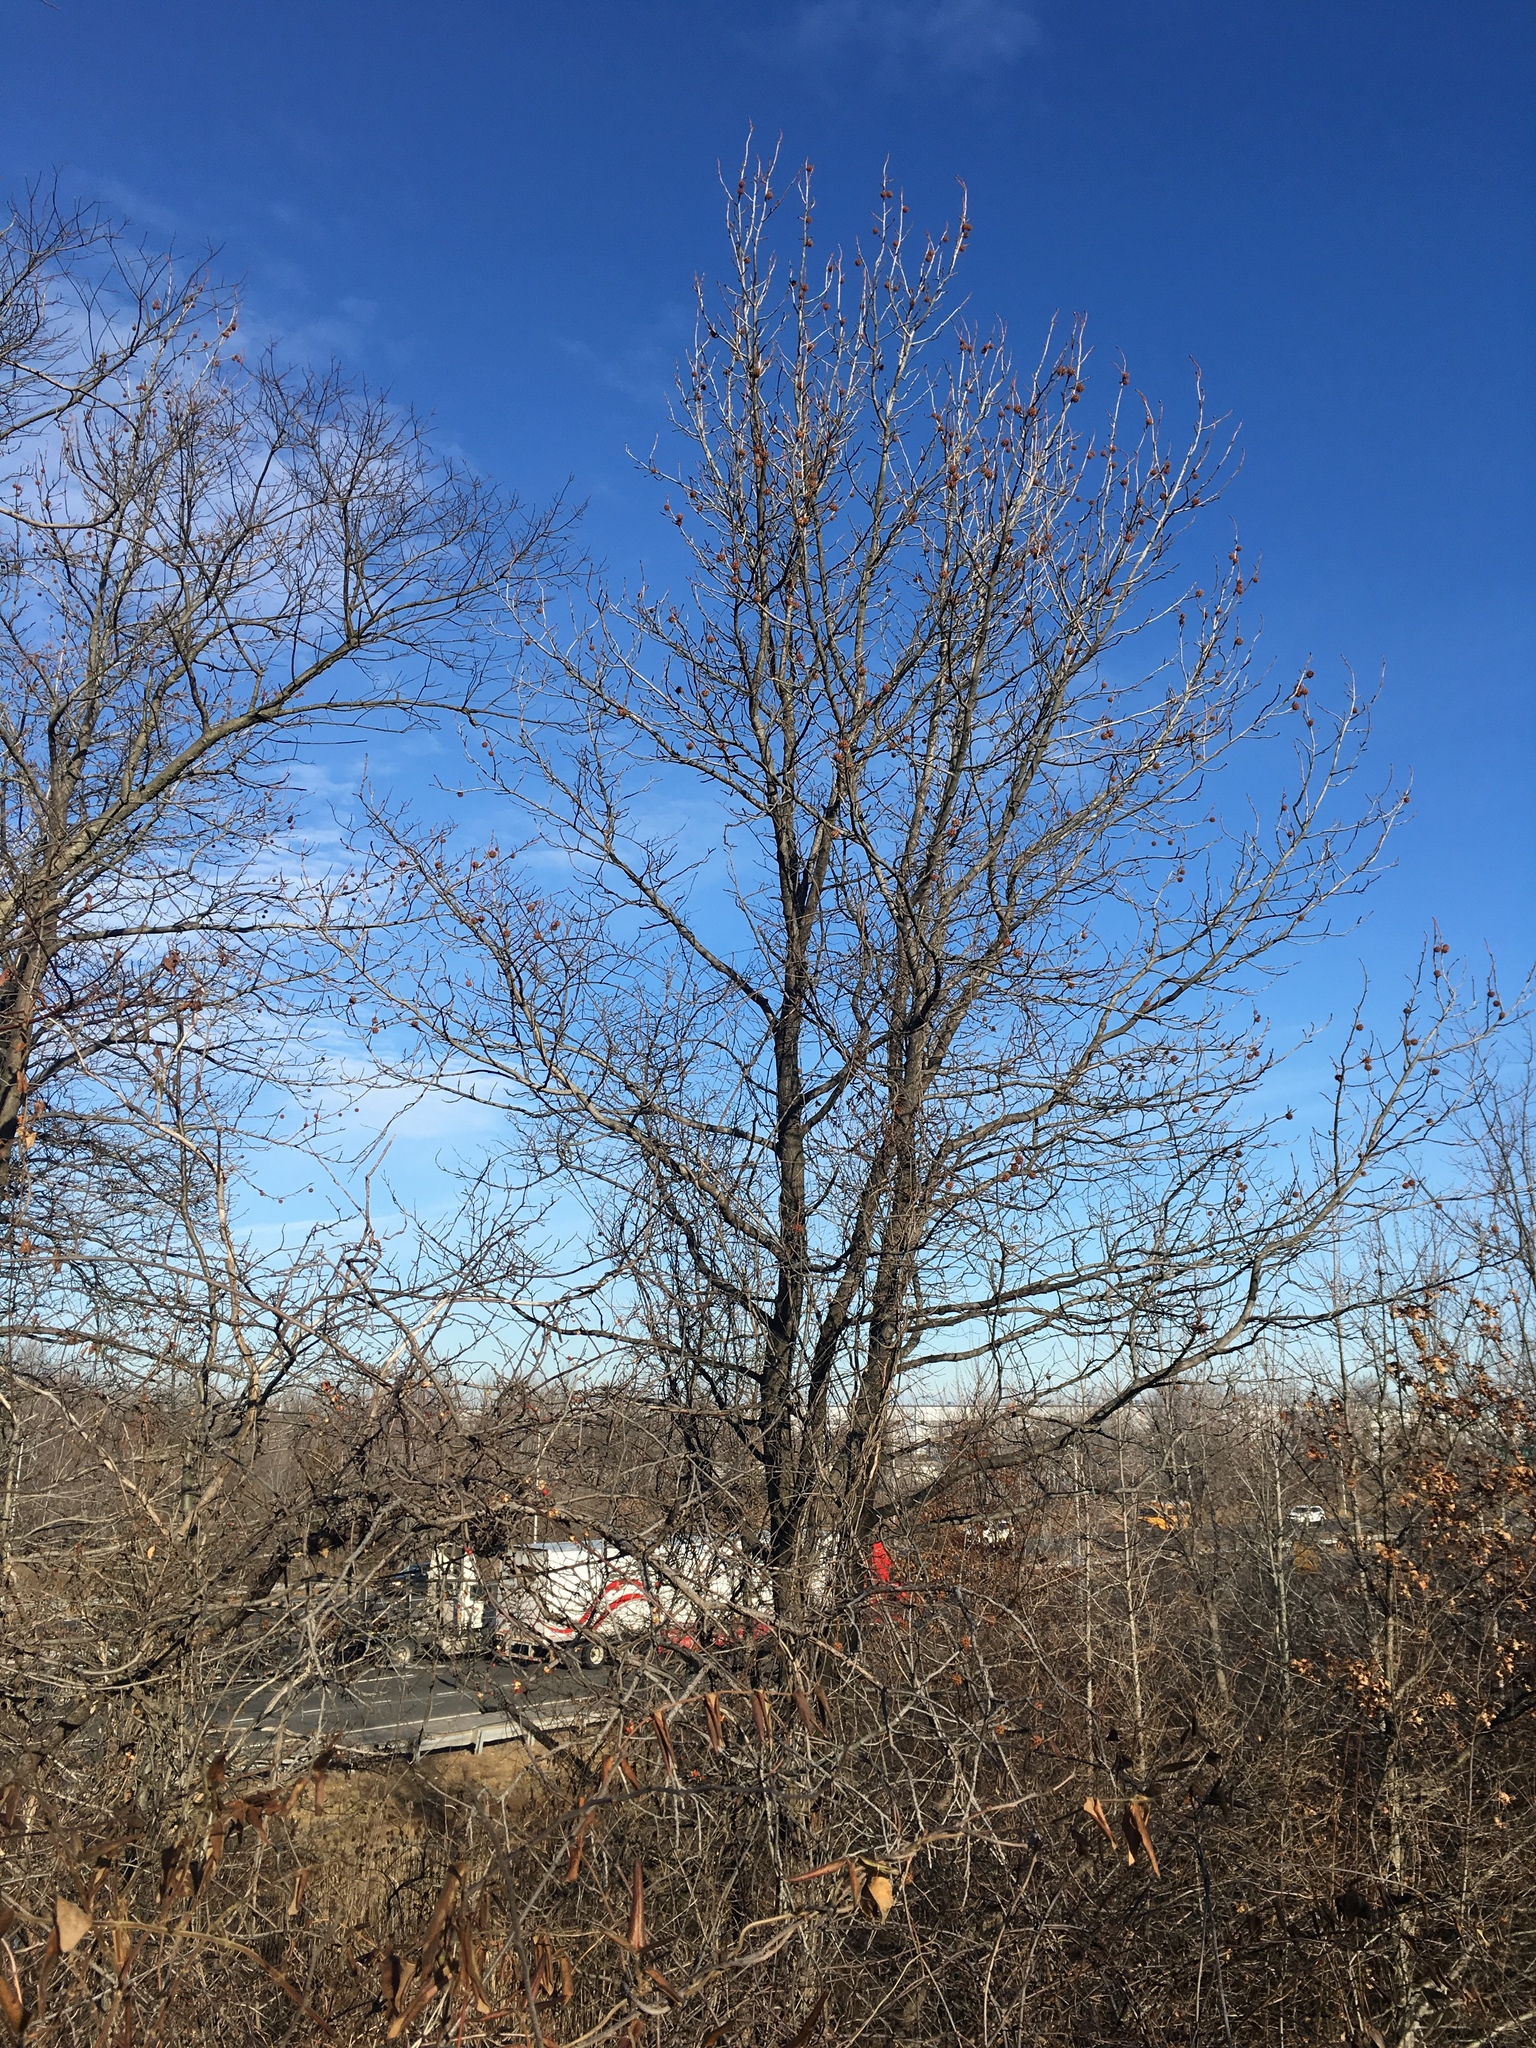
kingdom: Plantae
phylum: Tracheophyta
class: Magnoliopsida
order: Saxifragales
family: Altingiaceae
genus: Liquidambar
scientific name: Liquidambar styraciflua
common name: Sweet gum
